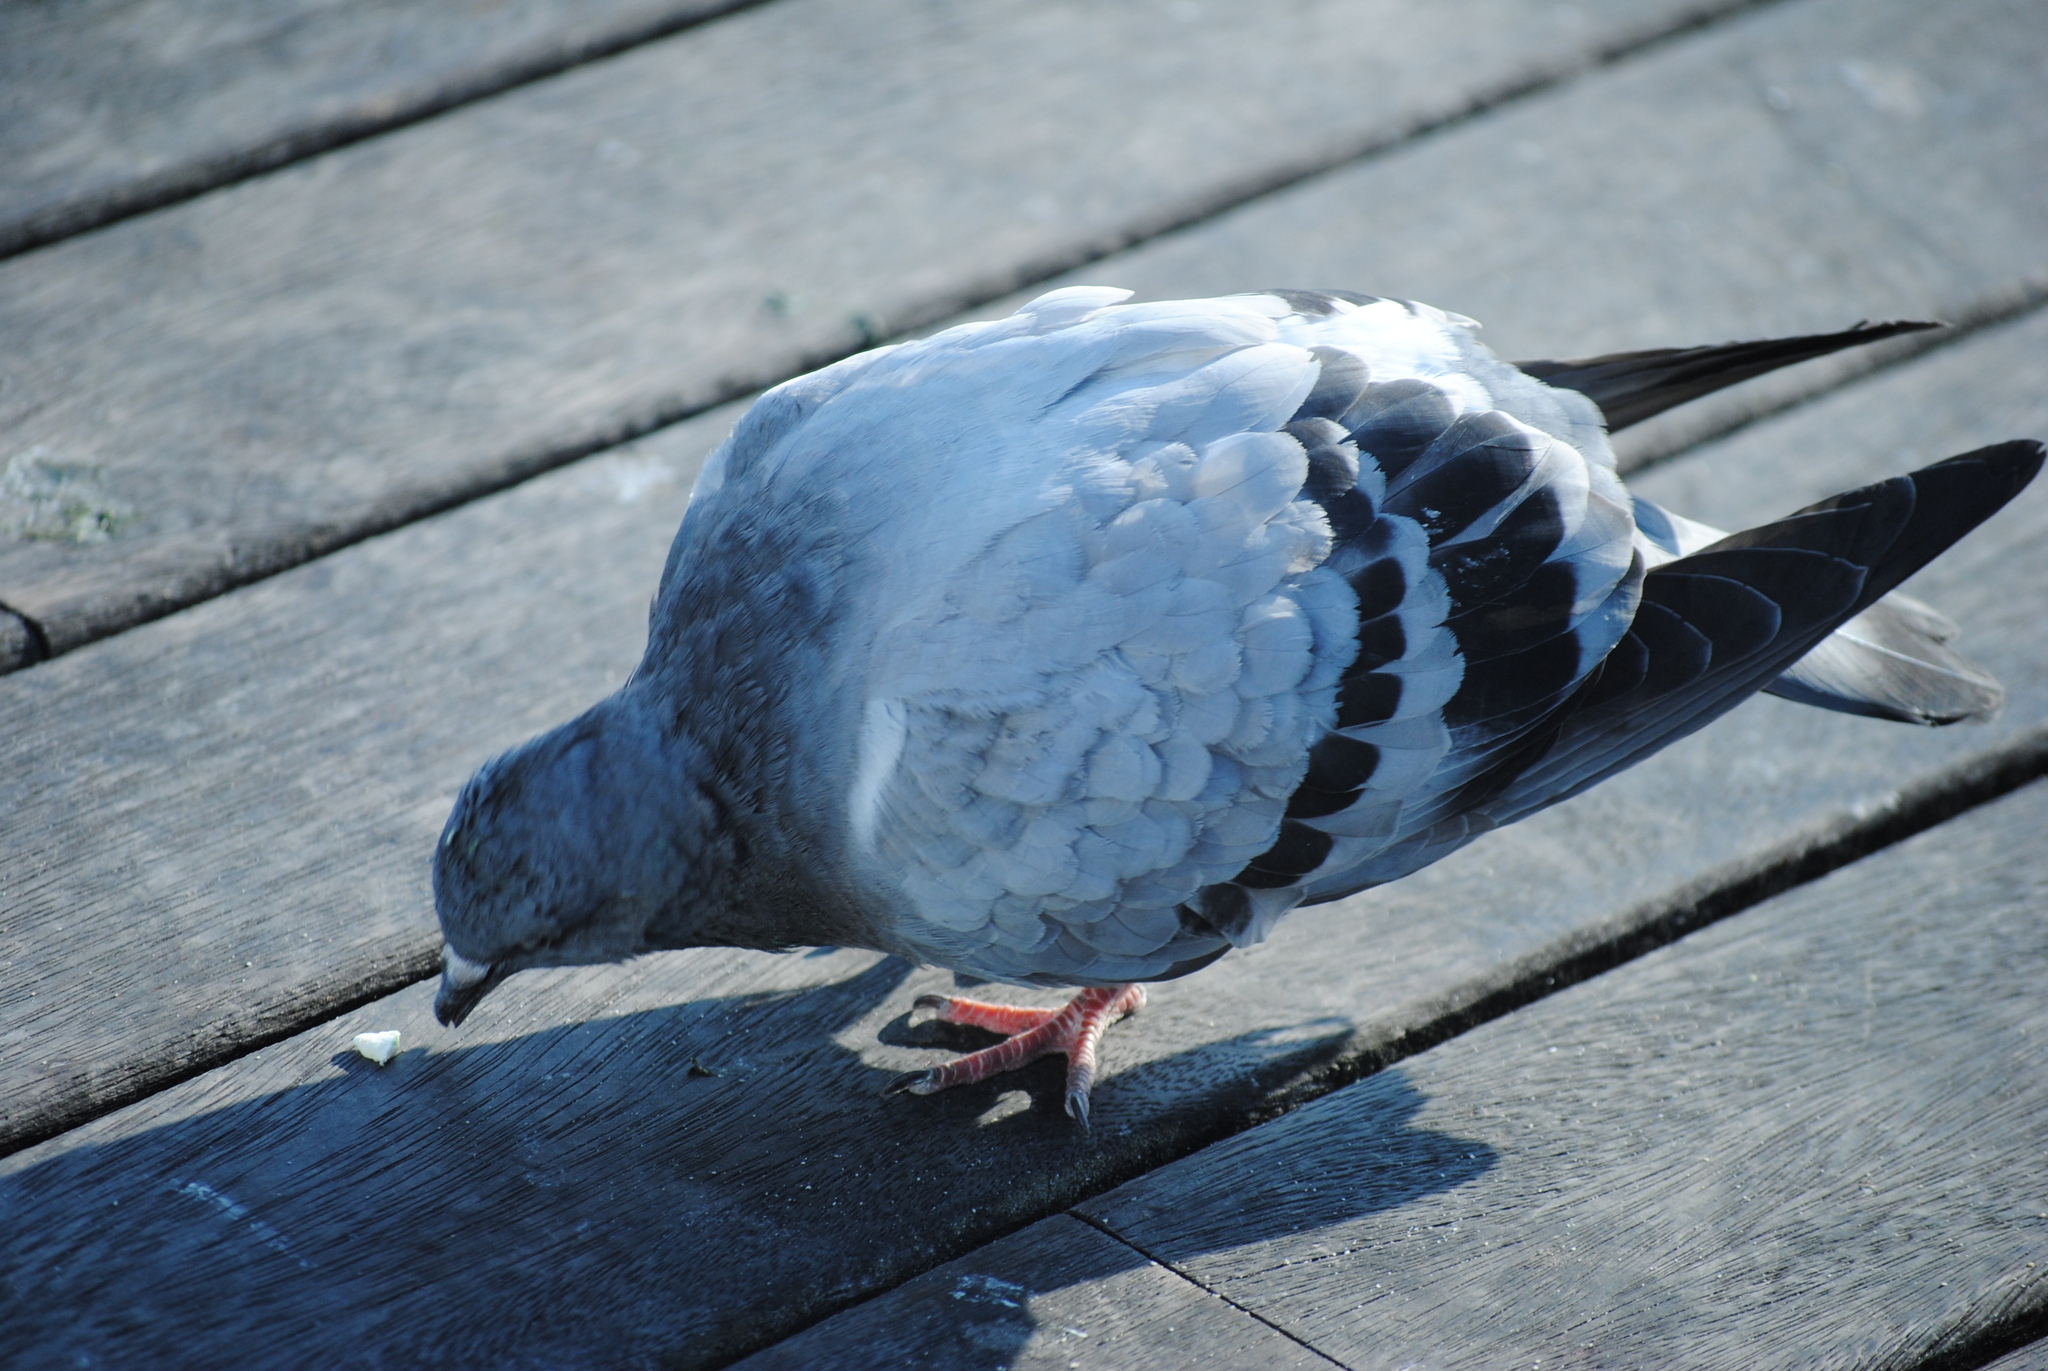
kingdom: Animalia
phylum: Chordata
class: Aves
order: Columbiformes
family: Columbidae
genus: Columba
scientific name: Columba livia
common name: Rock pigeon
